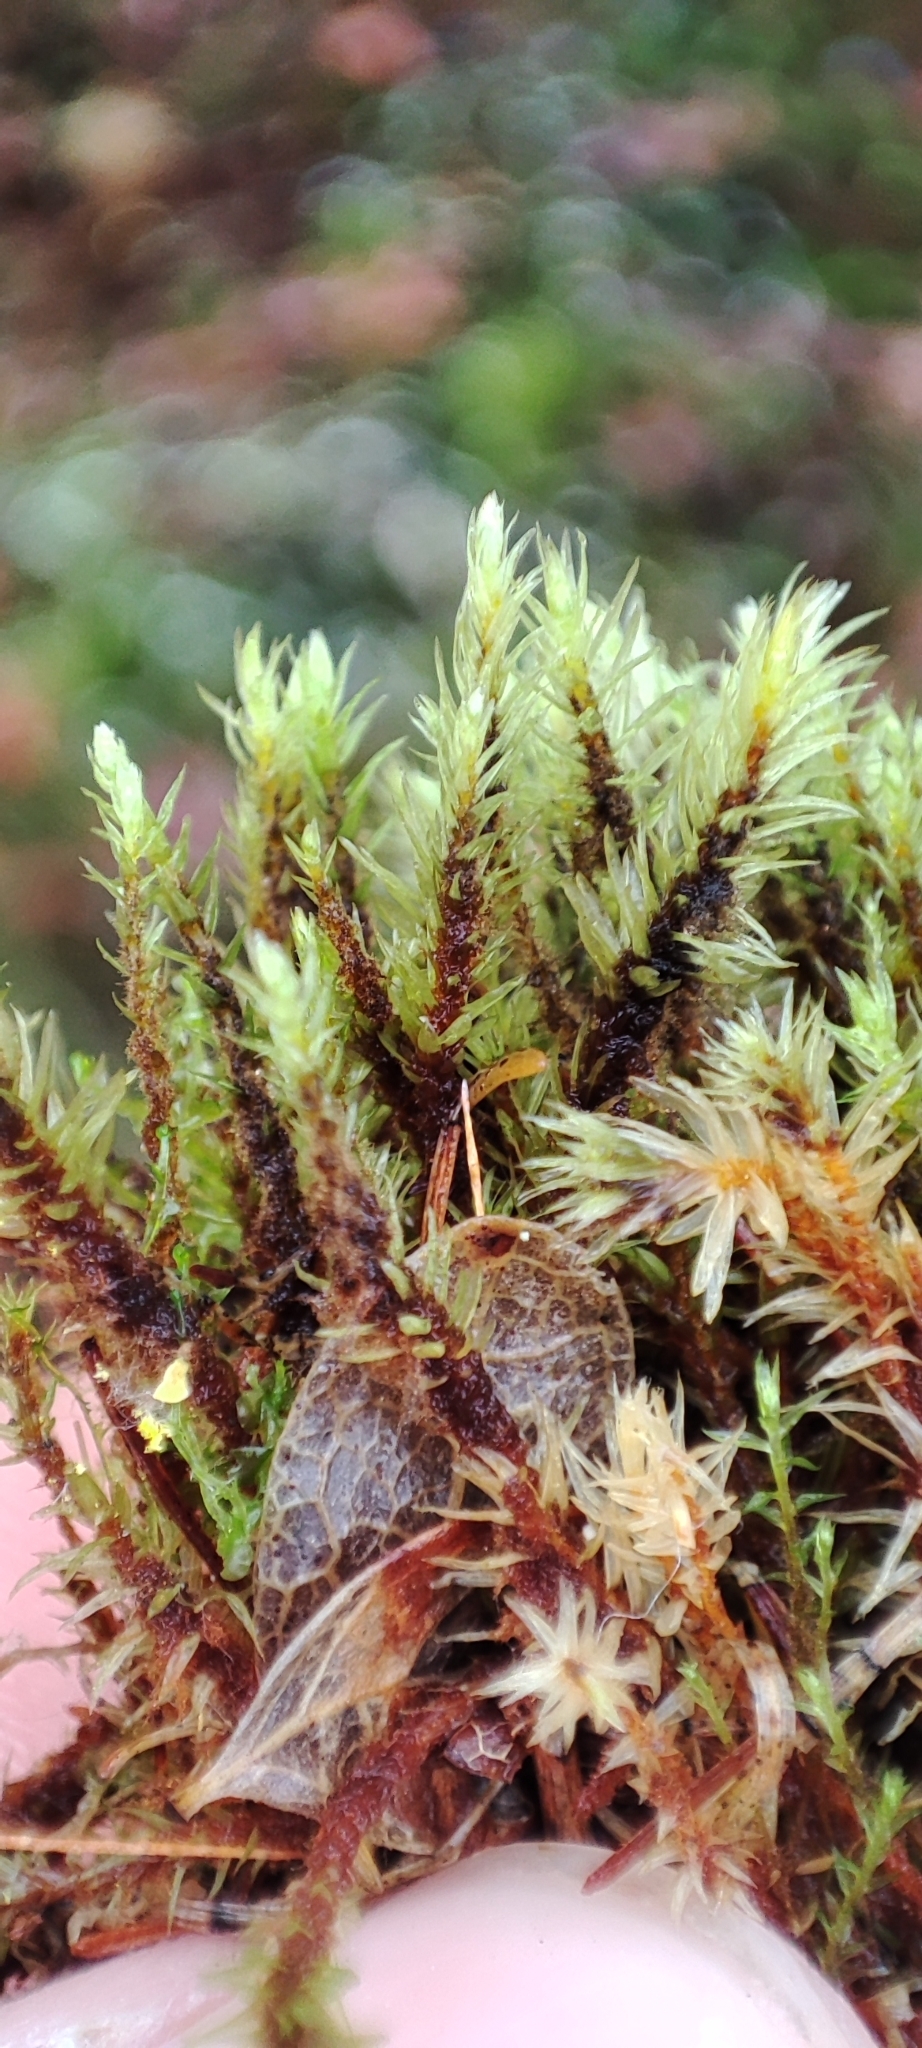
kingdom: Plantae
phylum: Bryophyta
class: Bryopsida
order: Aulacomniales
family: Aulacomniaceae
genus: Aulacomnium
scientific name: Aulacomnium palustre
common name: Bog groove-moss
